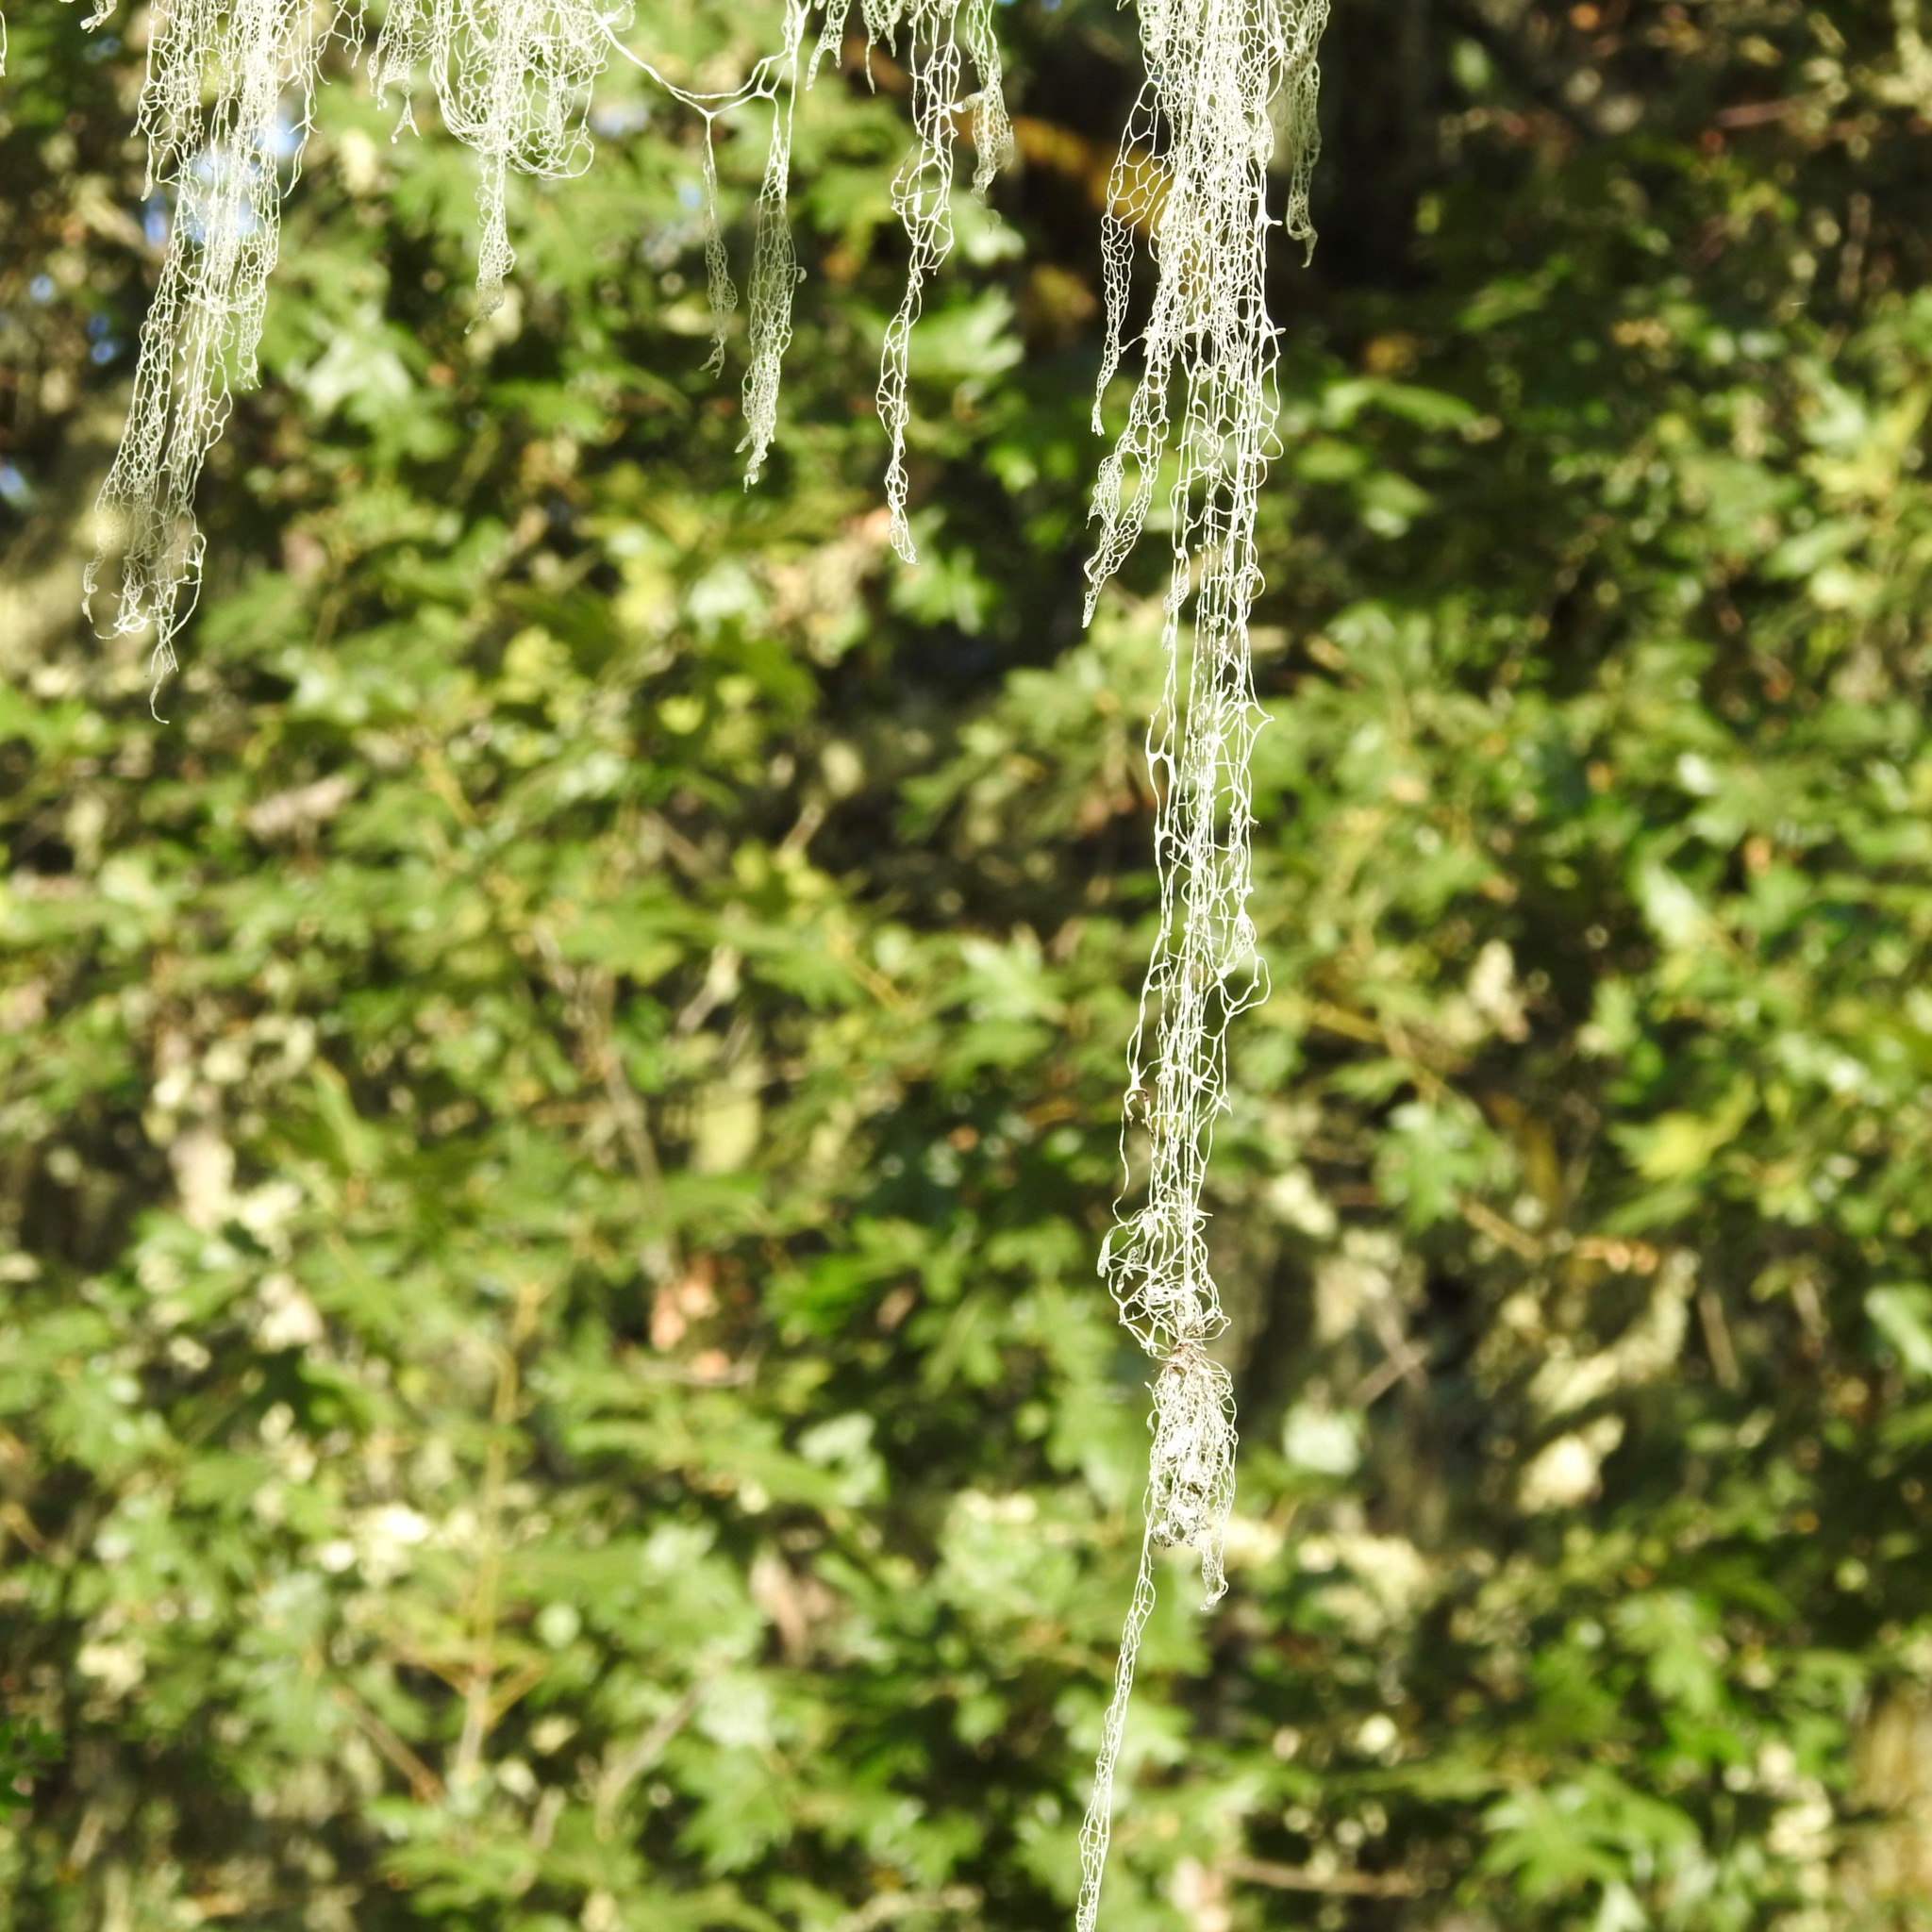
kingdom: Fungi
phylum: Ascomycota
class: Lecanoromycetes
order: Lecanorales
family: Ramalinaceae
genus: Ramalina
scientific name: Ramalina menziesii
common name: Lace lichen
